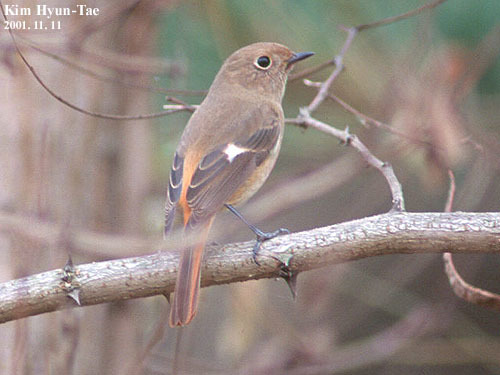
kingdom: Animalia
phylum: Chordata
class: Aves
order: Passeriformes
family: Muscicapidae
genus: Phoenicurus
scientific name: Phoenicurus auroreus
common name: Daurian redstart
